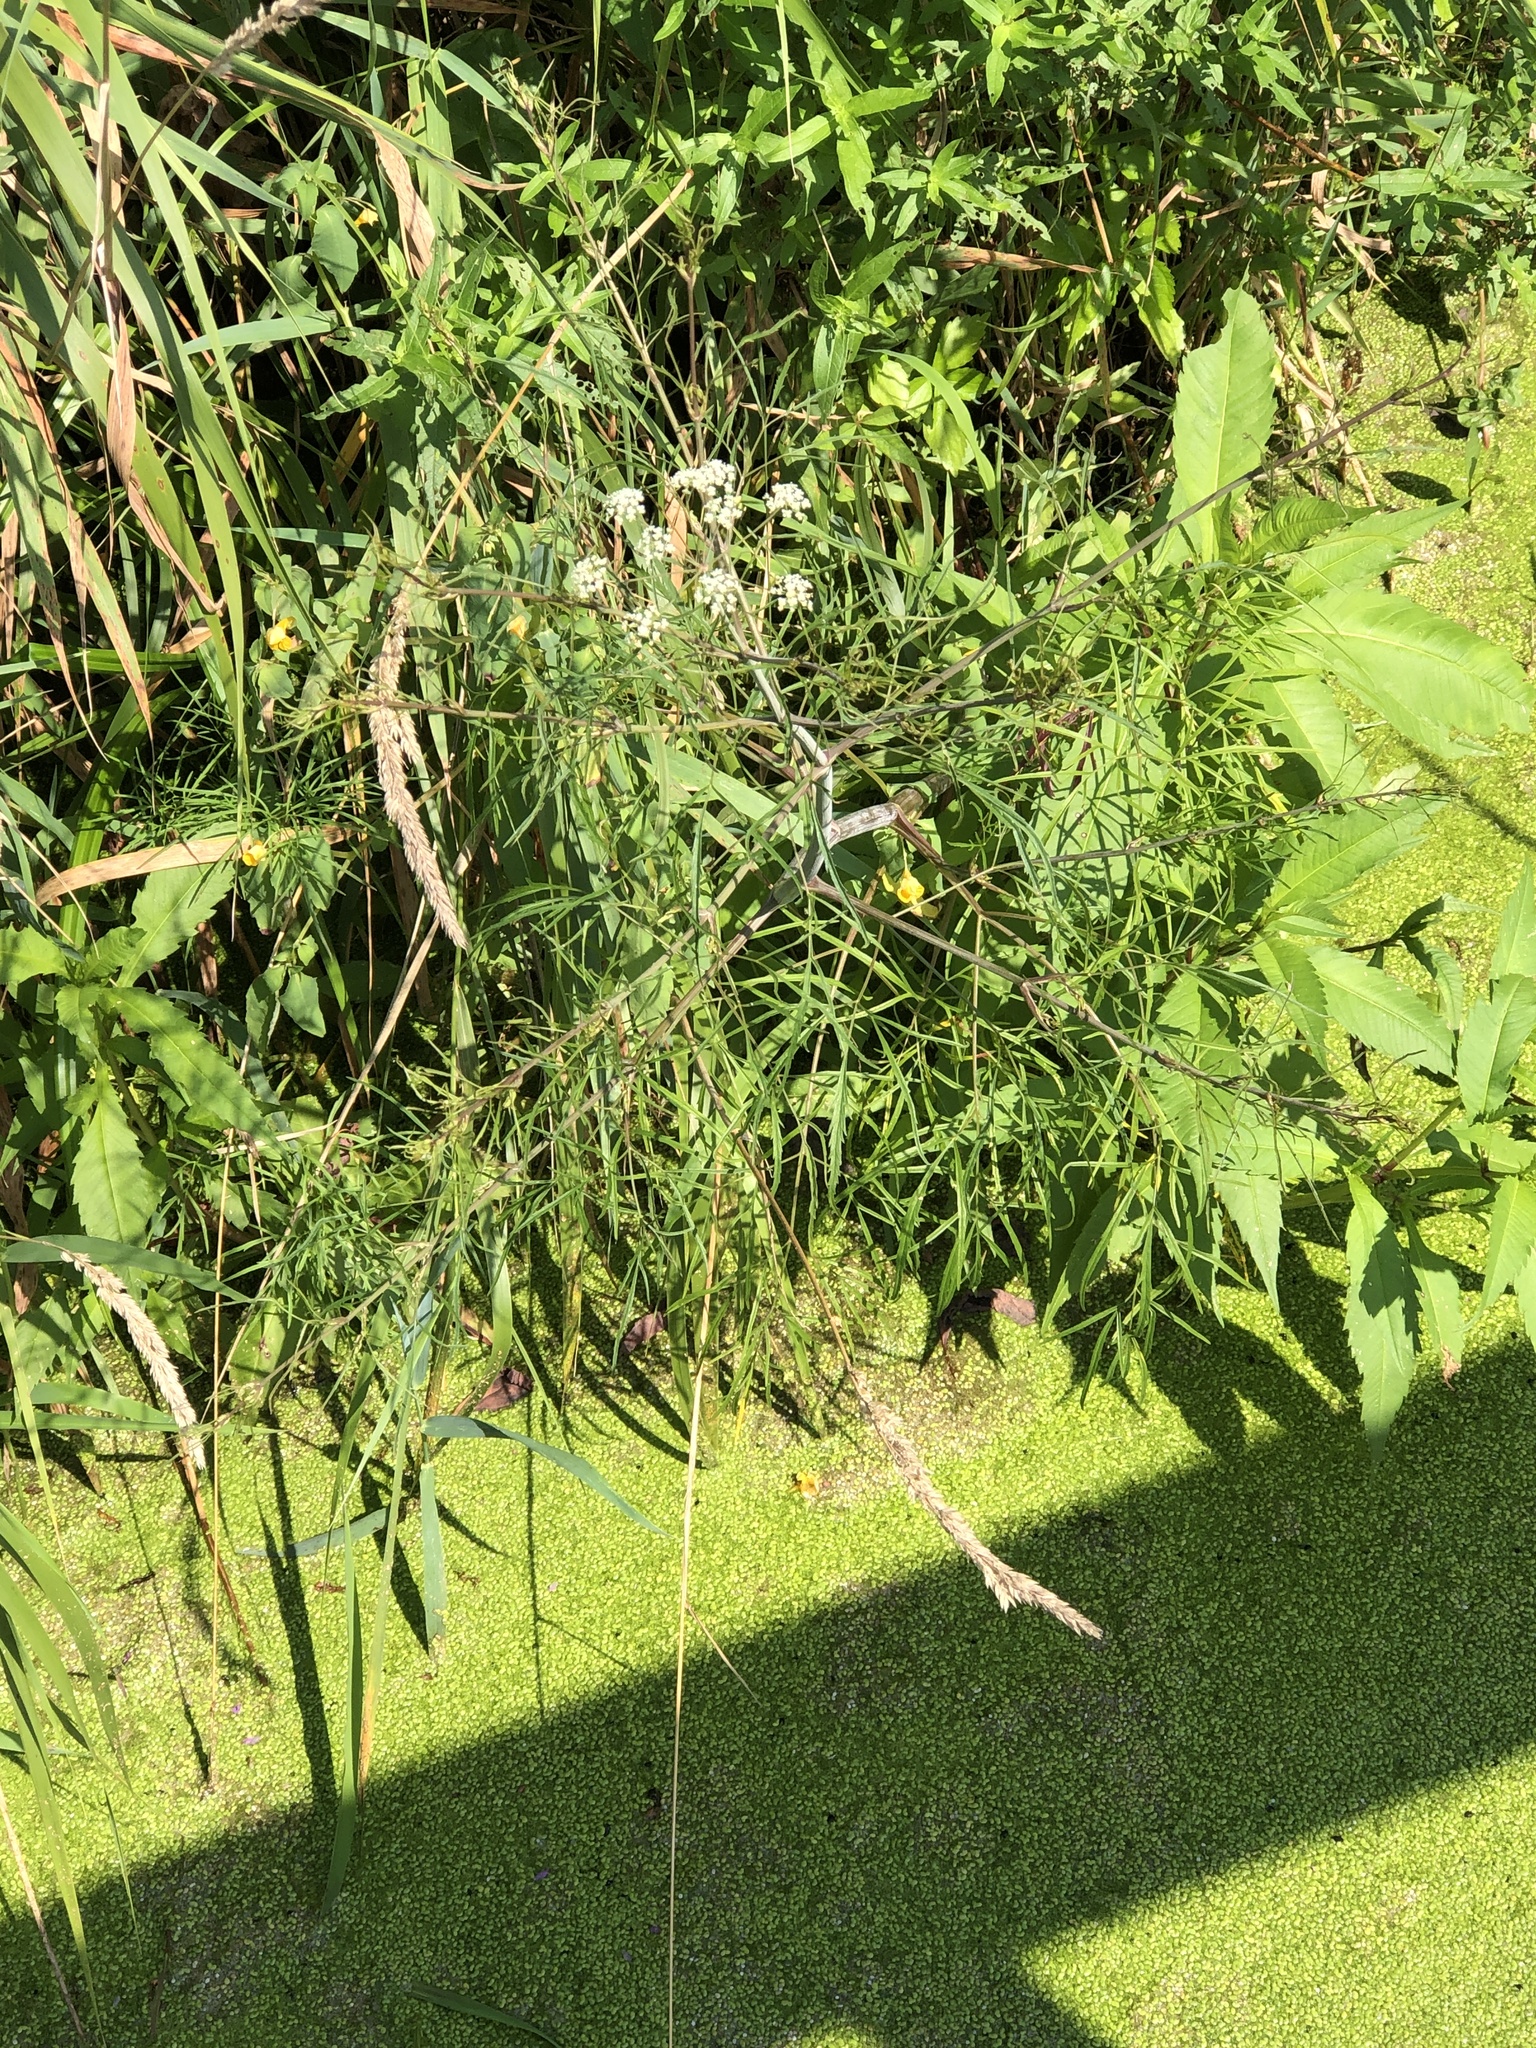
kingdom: Plantae
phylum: Tracheophyta
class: Magnoliopsida
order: Apiales
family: Apiaceae
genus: Cicuta
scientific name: Cicuta bulbifera
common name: Bulb-bearing water-hemlock
